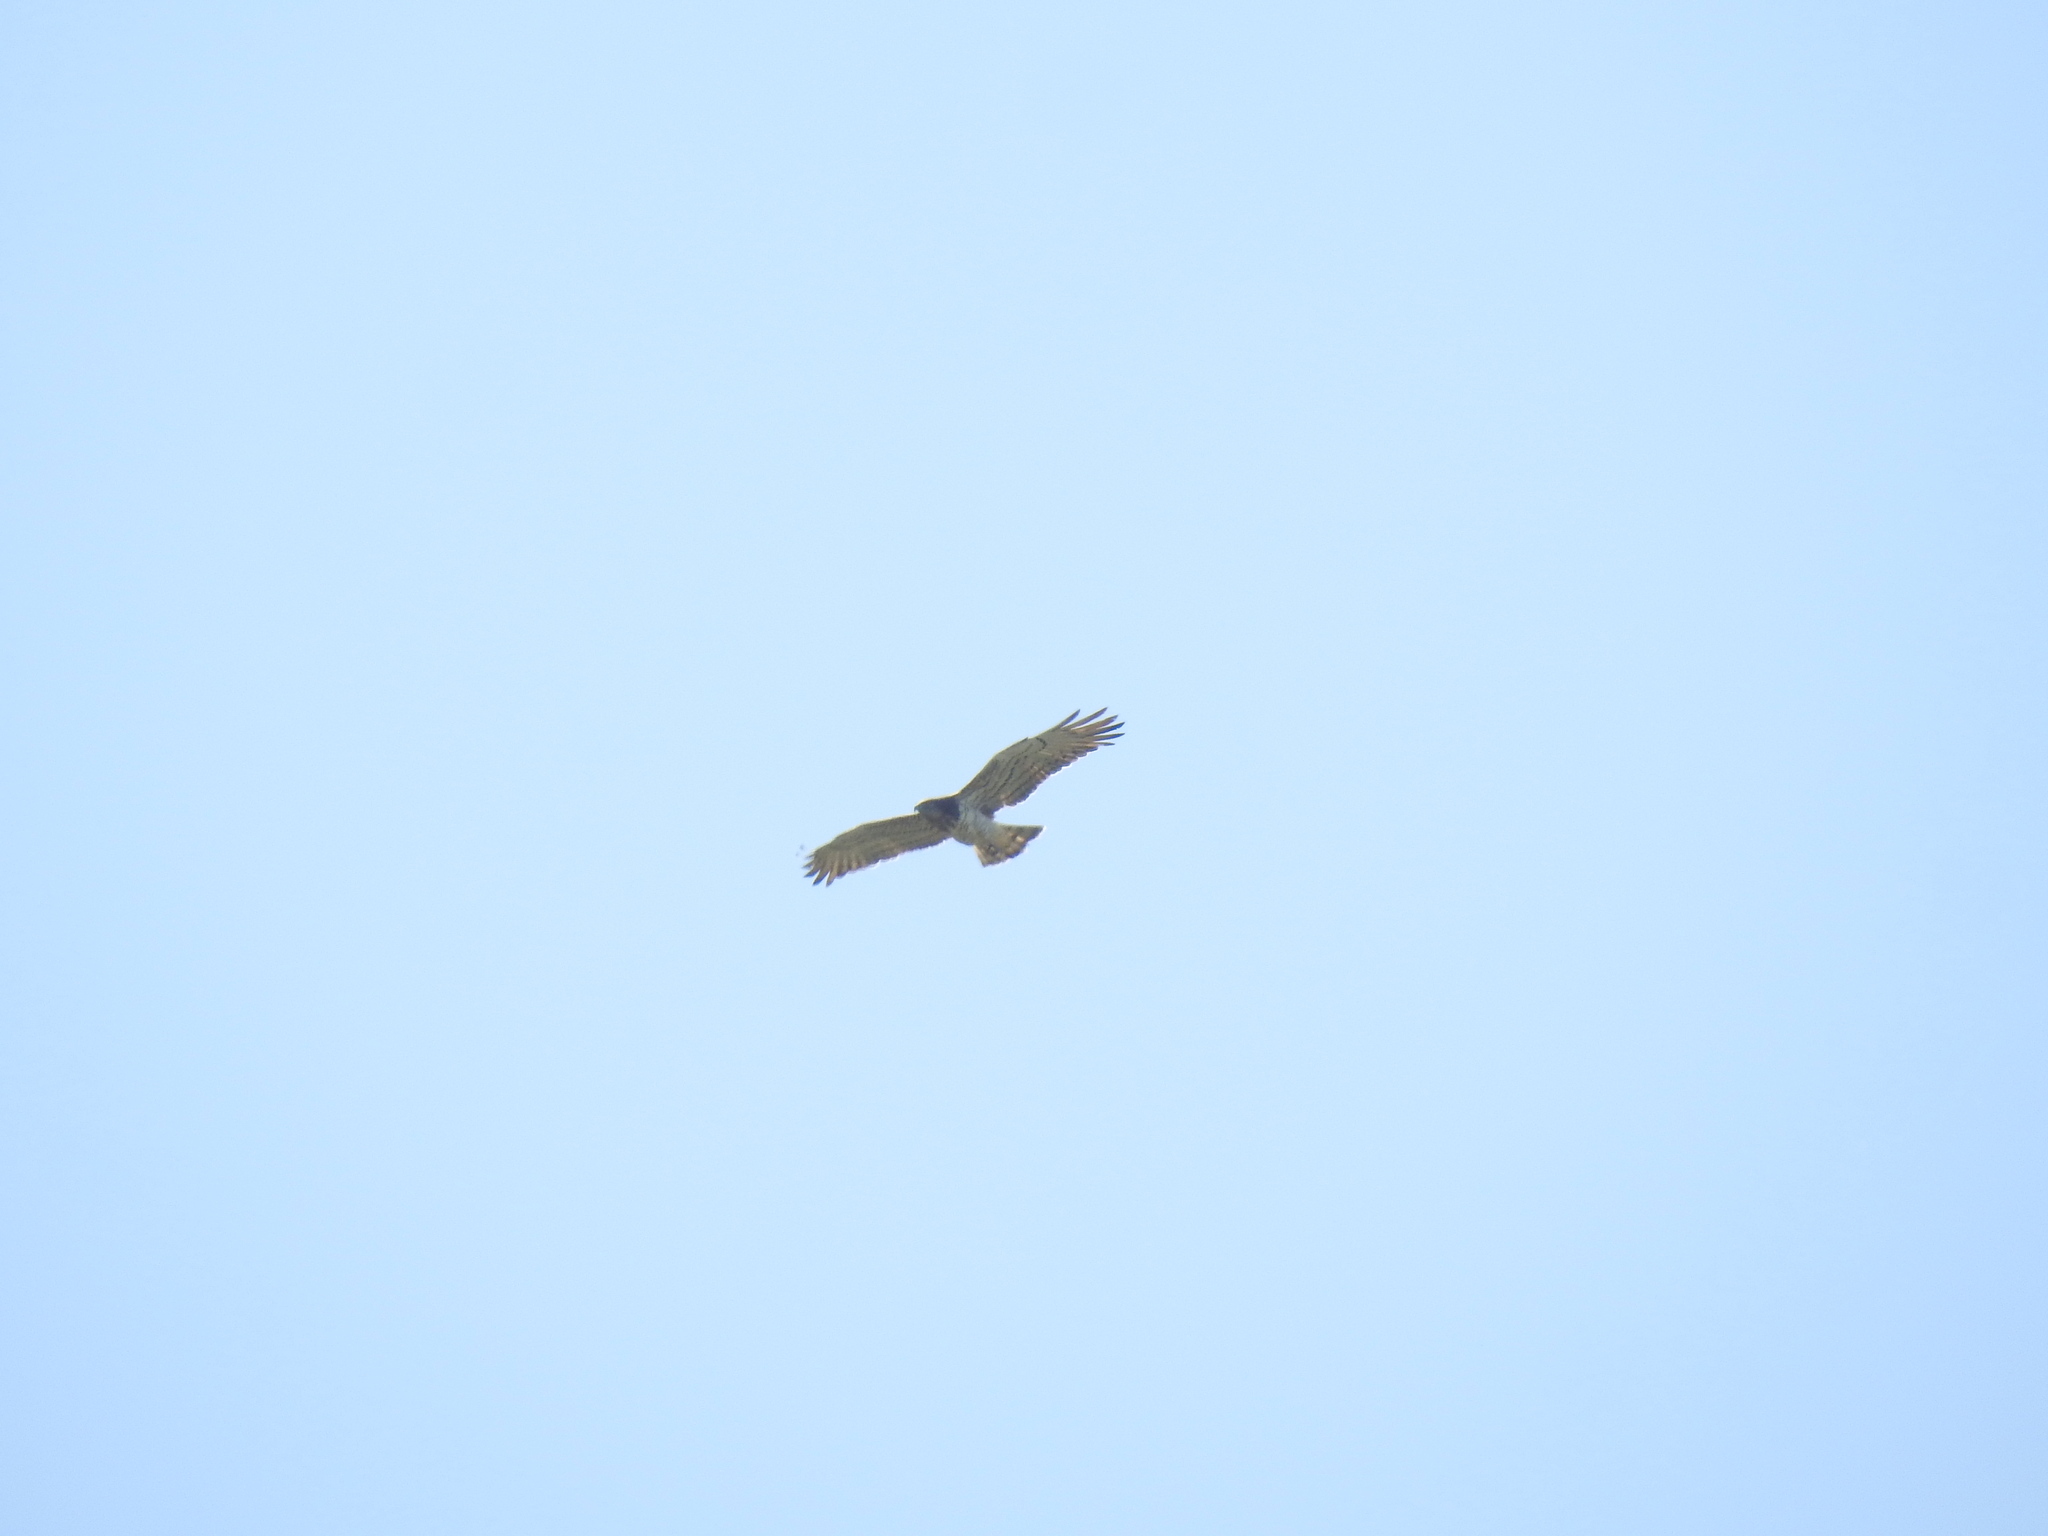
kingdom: Animalia
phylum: Chordata
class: Aves
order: Accipitriformes
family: Accipitridae
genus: Circaetus
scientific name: Circaetus gallicus
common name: Short-toed snake eagle
